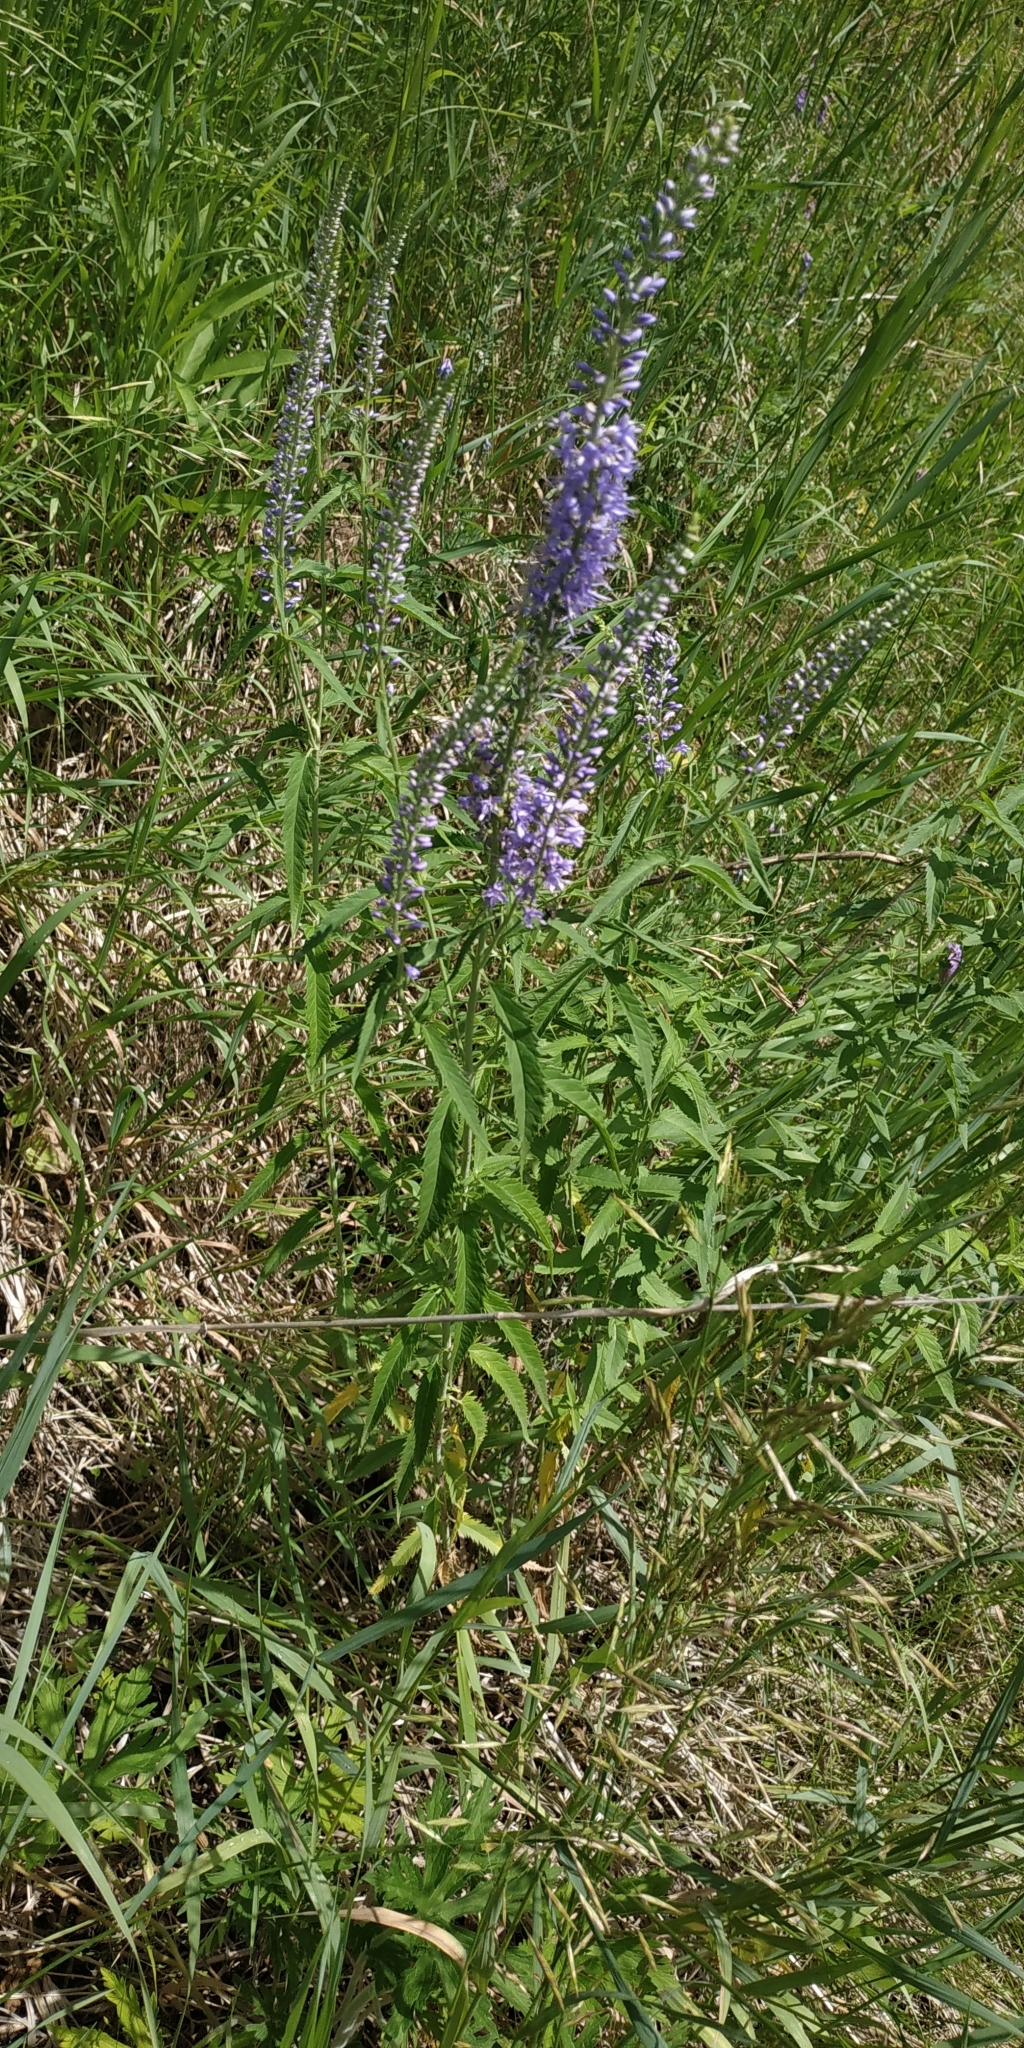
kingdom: Plantae
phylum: Tracheophyta
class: Magnoliopsida
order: Lamiales
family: Plantaginaceae
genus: Veronica
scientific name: Veronica longifolia
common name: Garden speedwell
